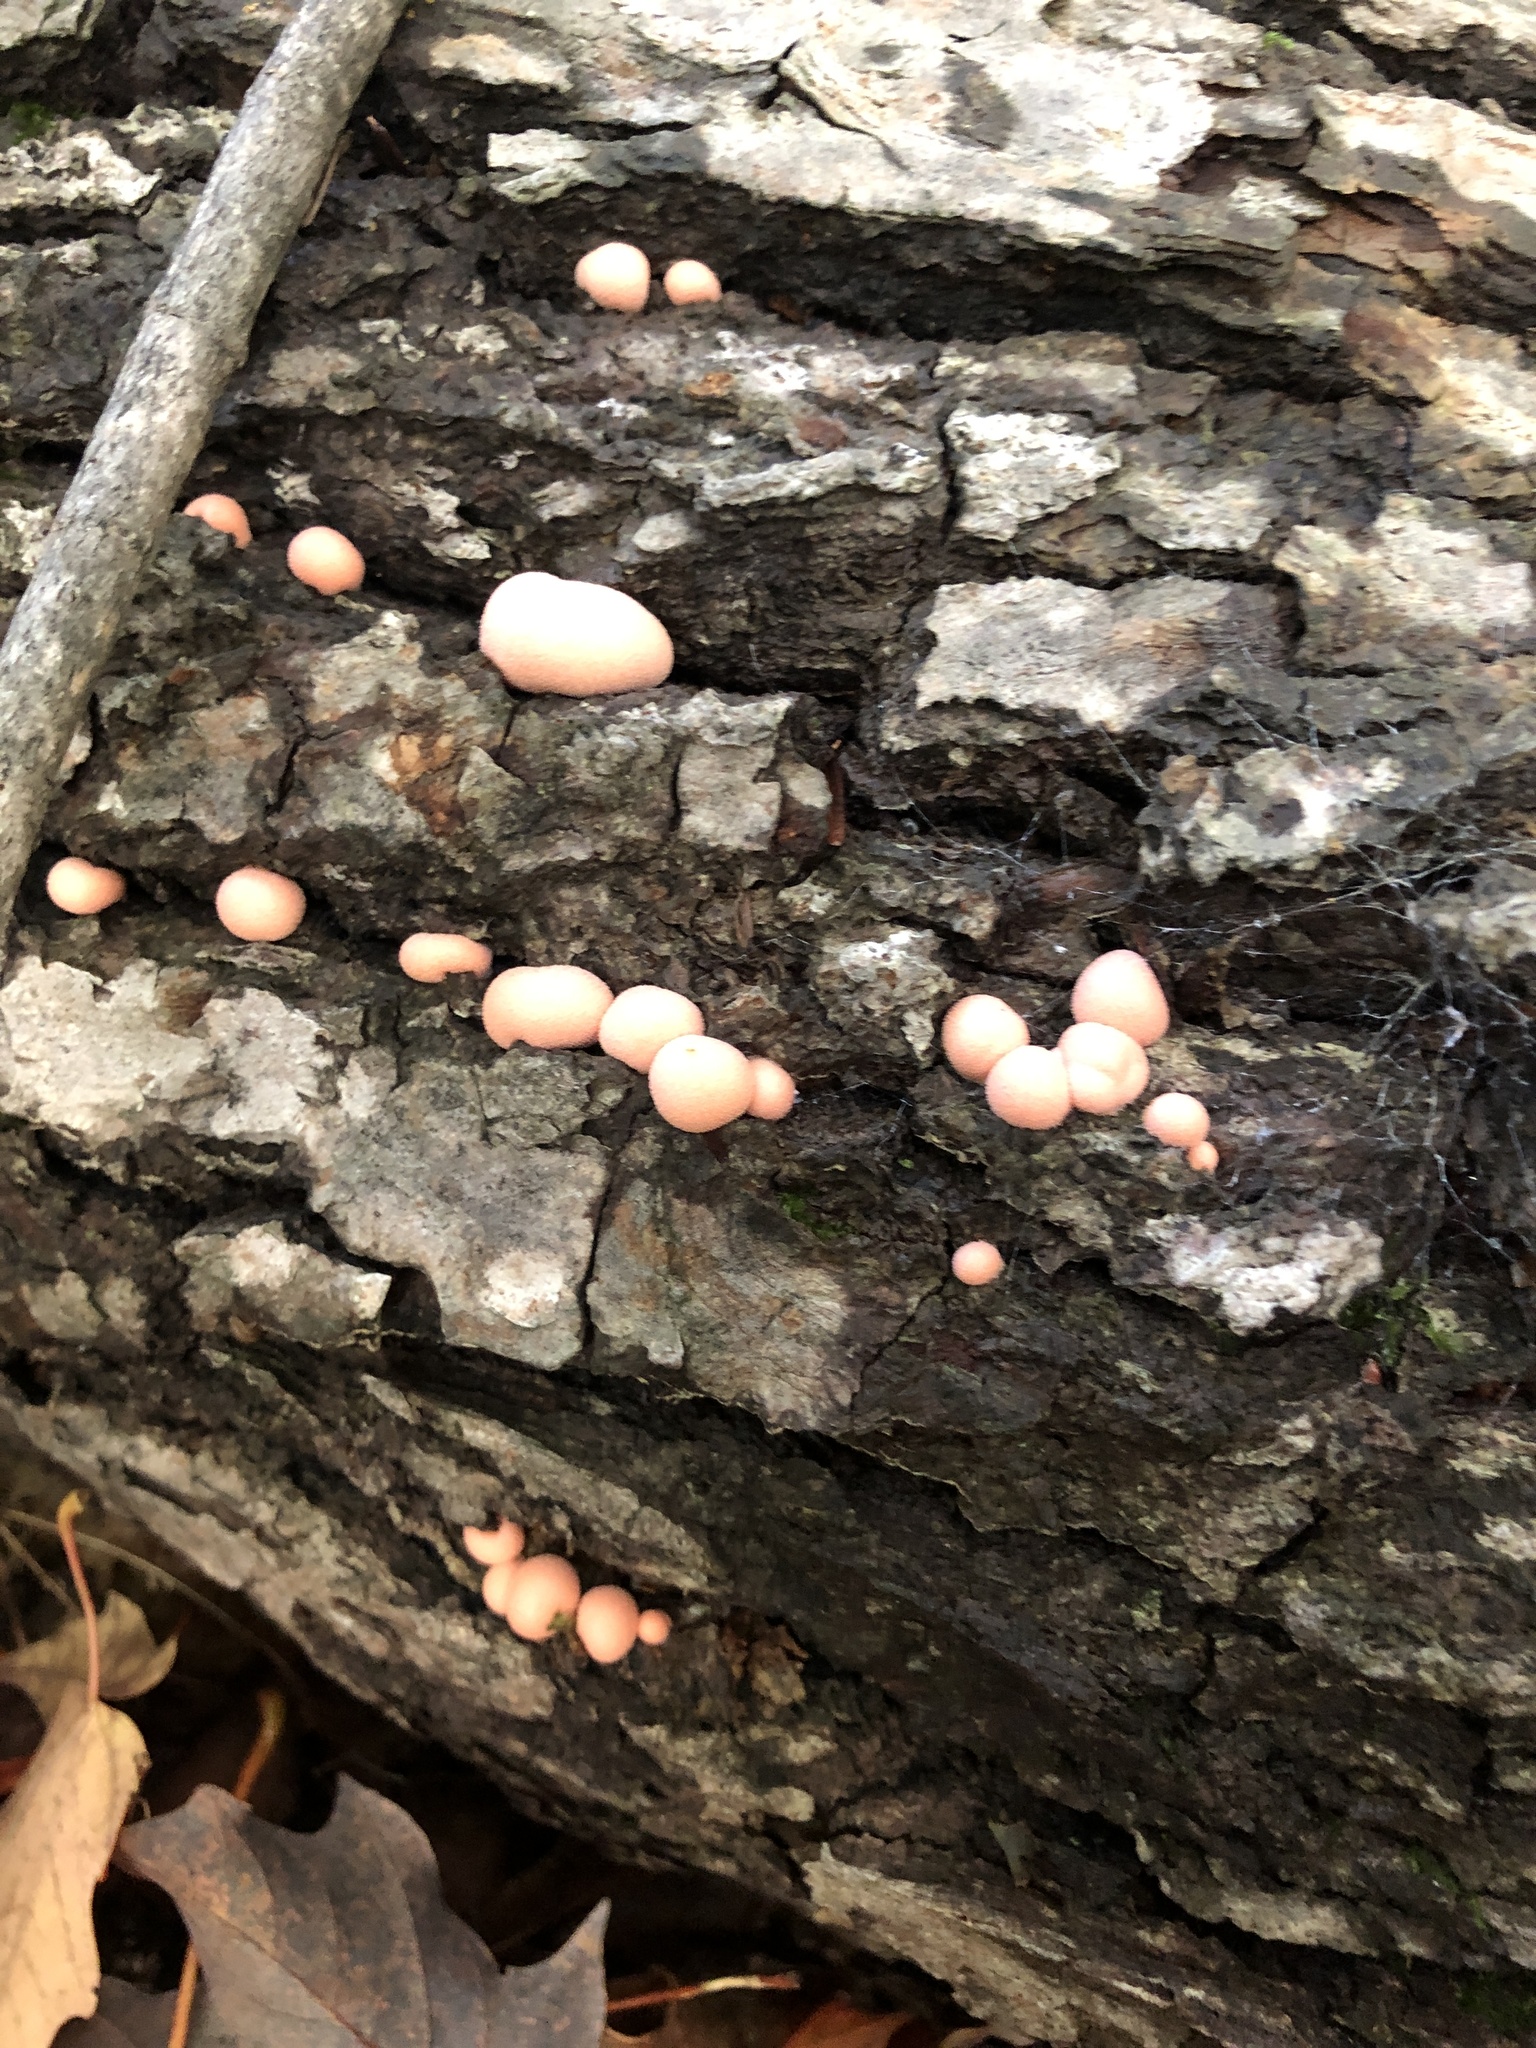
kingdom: Protozoa
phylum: Mycetozoa
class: Myxomycetes
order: Cribrariales
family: Tubiferaceae
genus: Lycogala
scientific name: Lycogala epidendrum
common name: Wolf's milk
